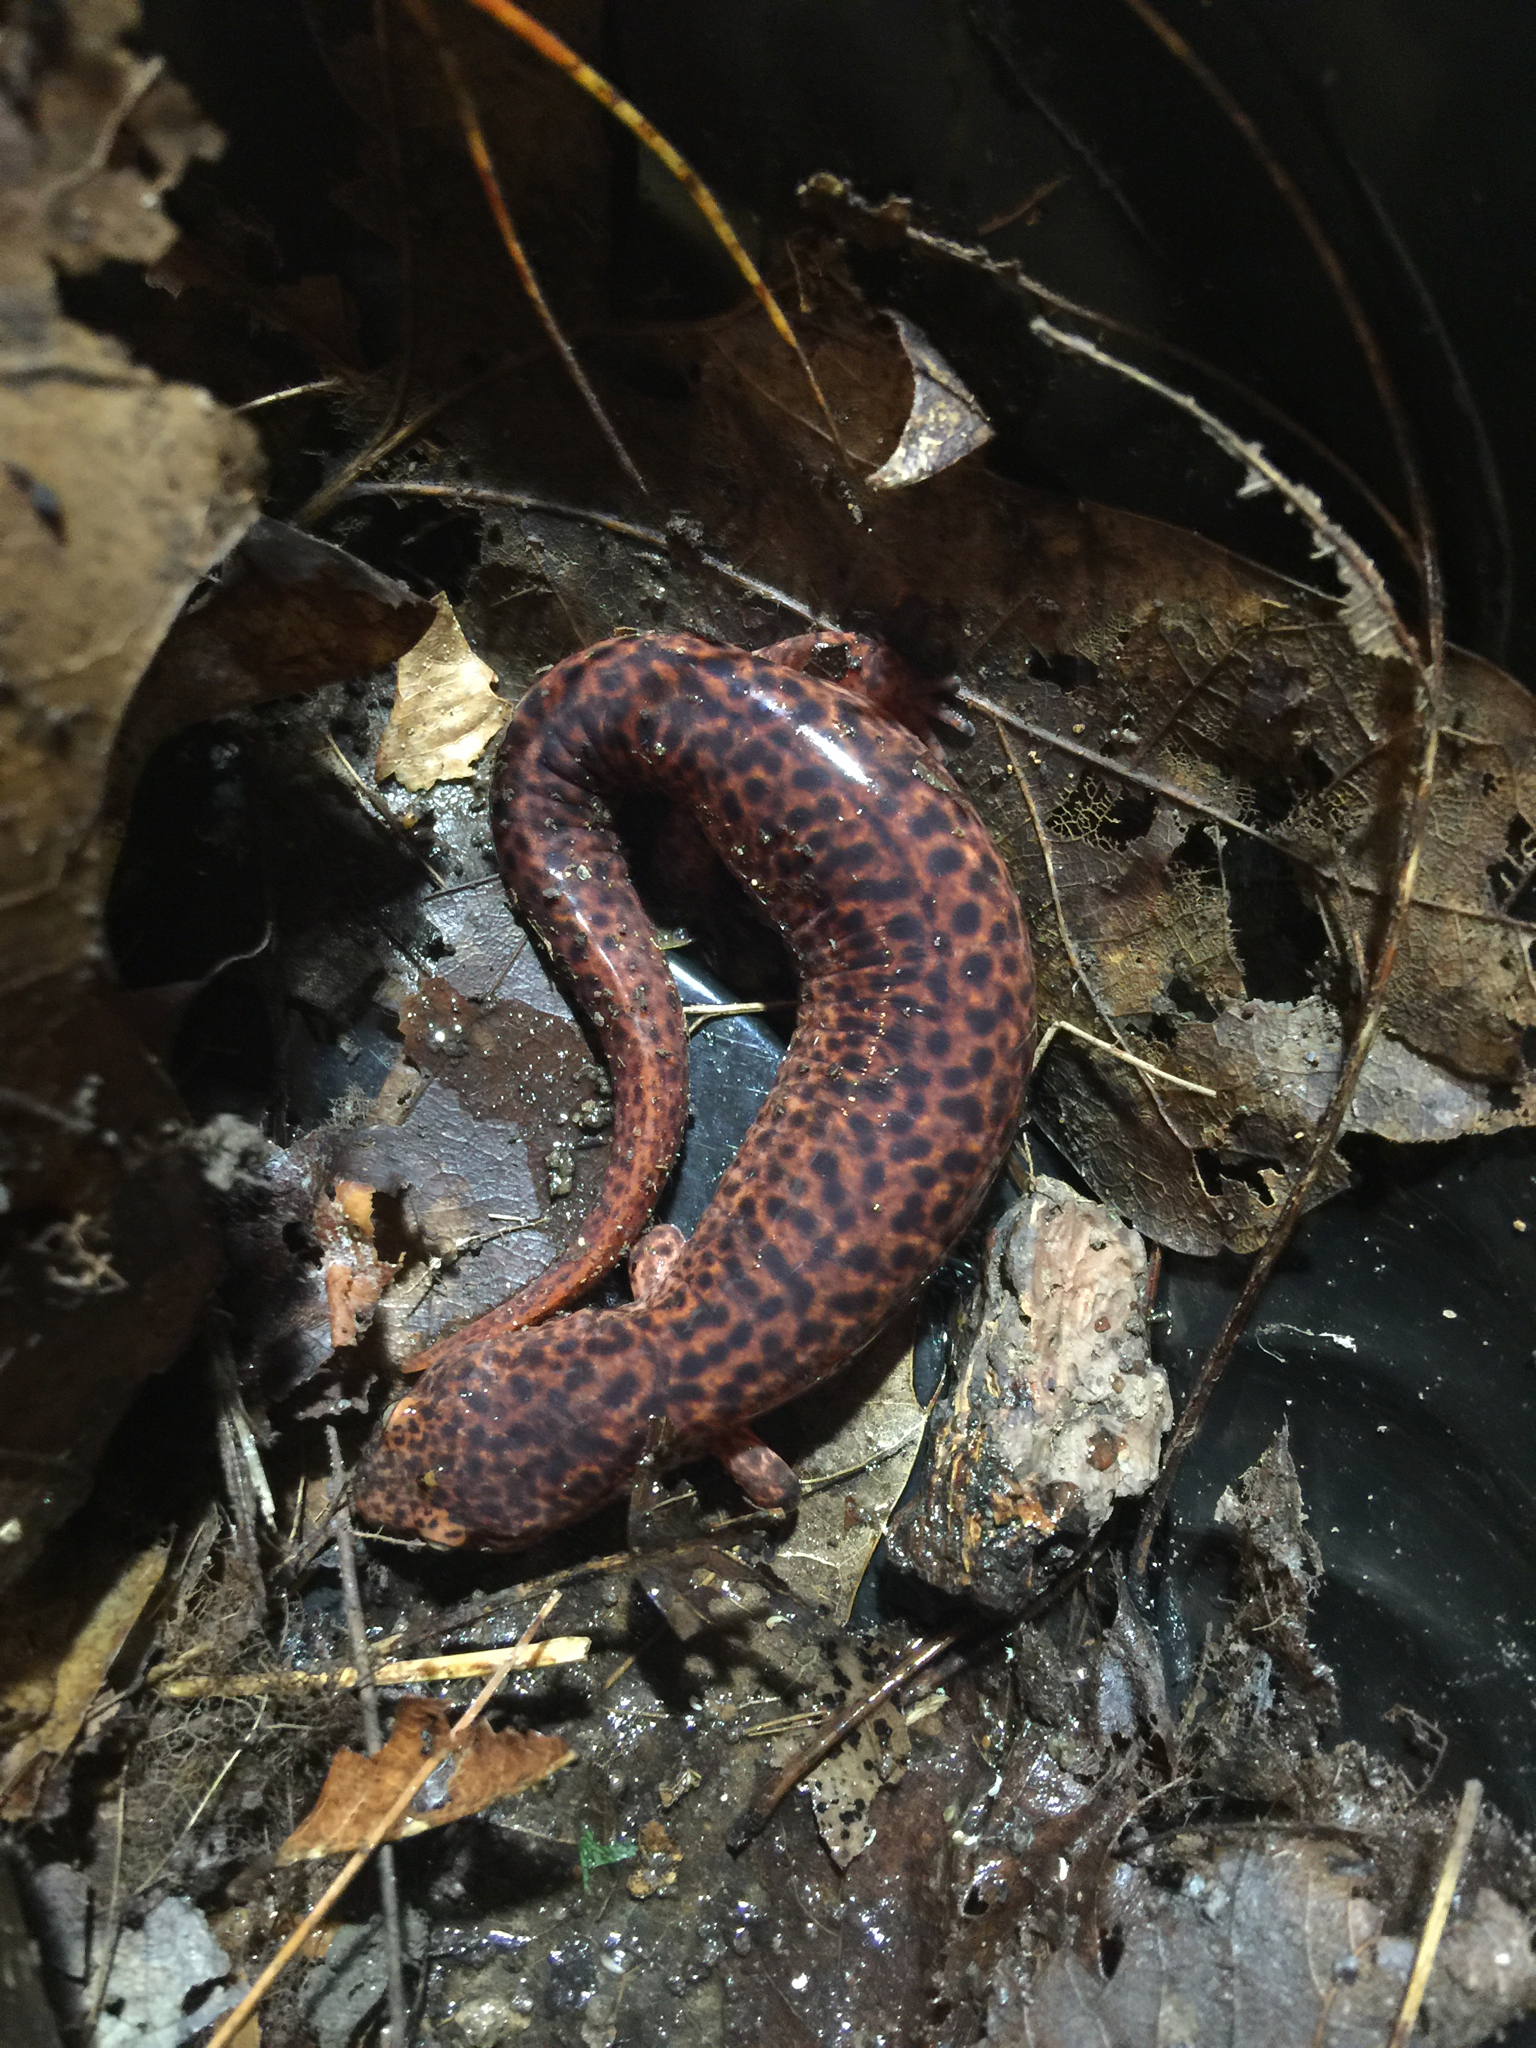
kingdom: Animalia
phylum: Chordata
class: Amphibia
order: Caudata
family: Plethodontidae
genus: Pseudotriton
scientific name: Pseudotriton ruber
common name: Red salamander
